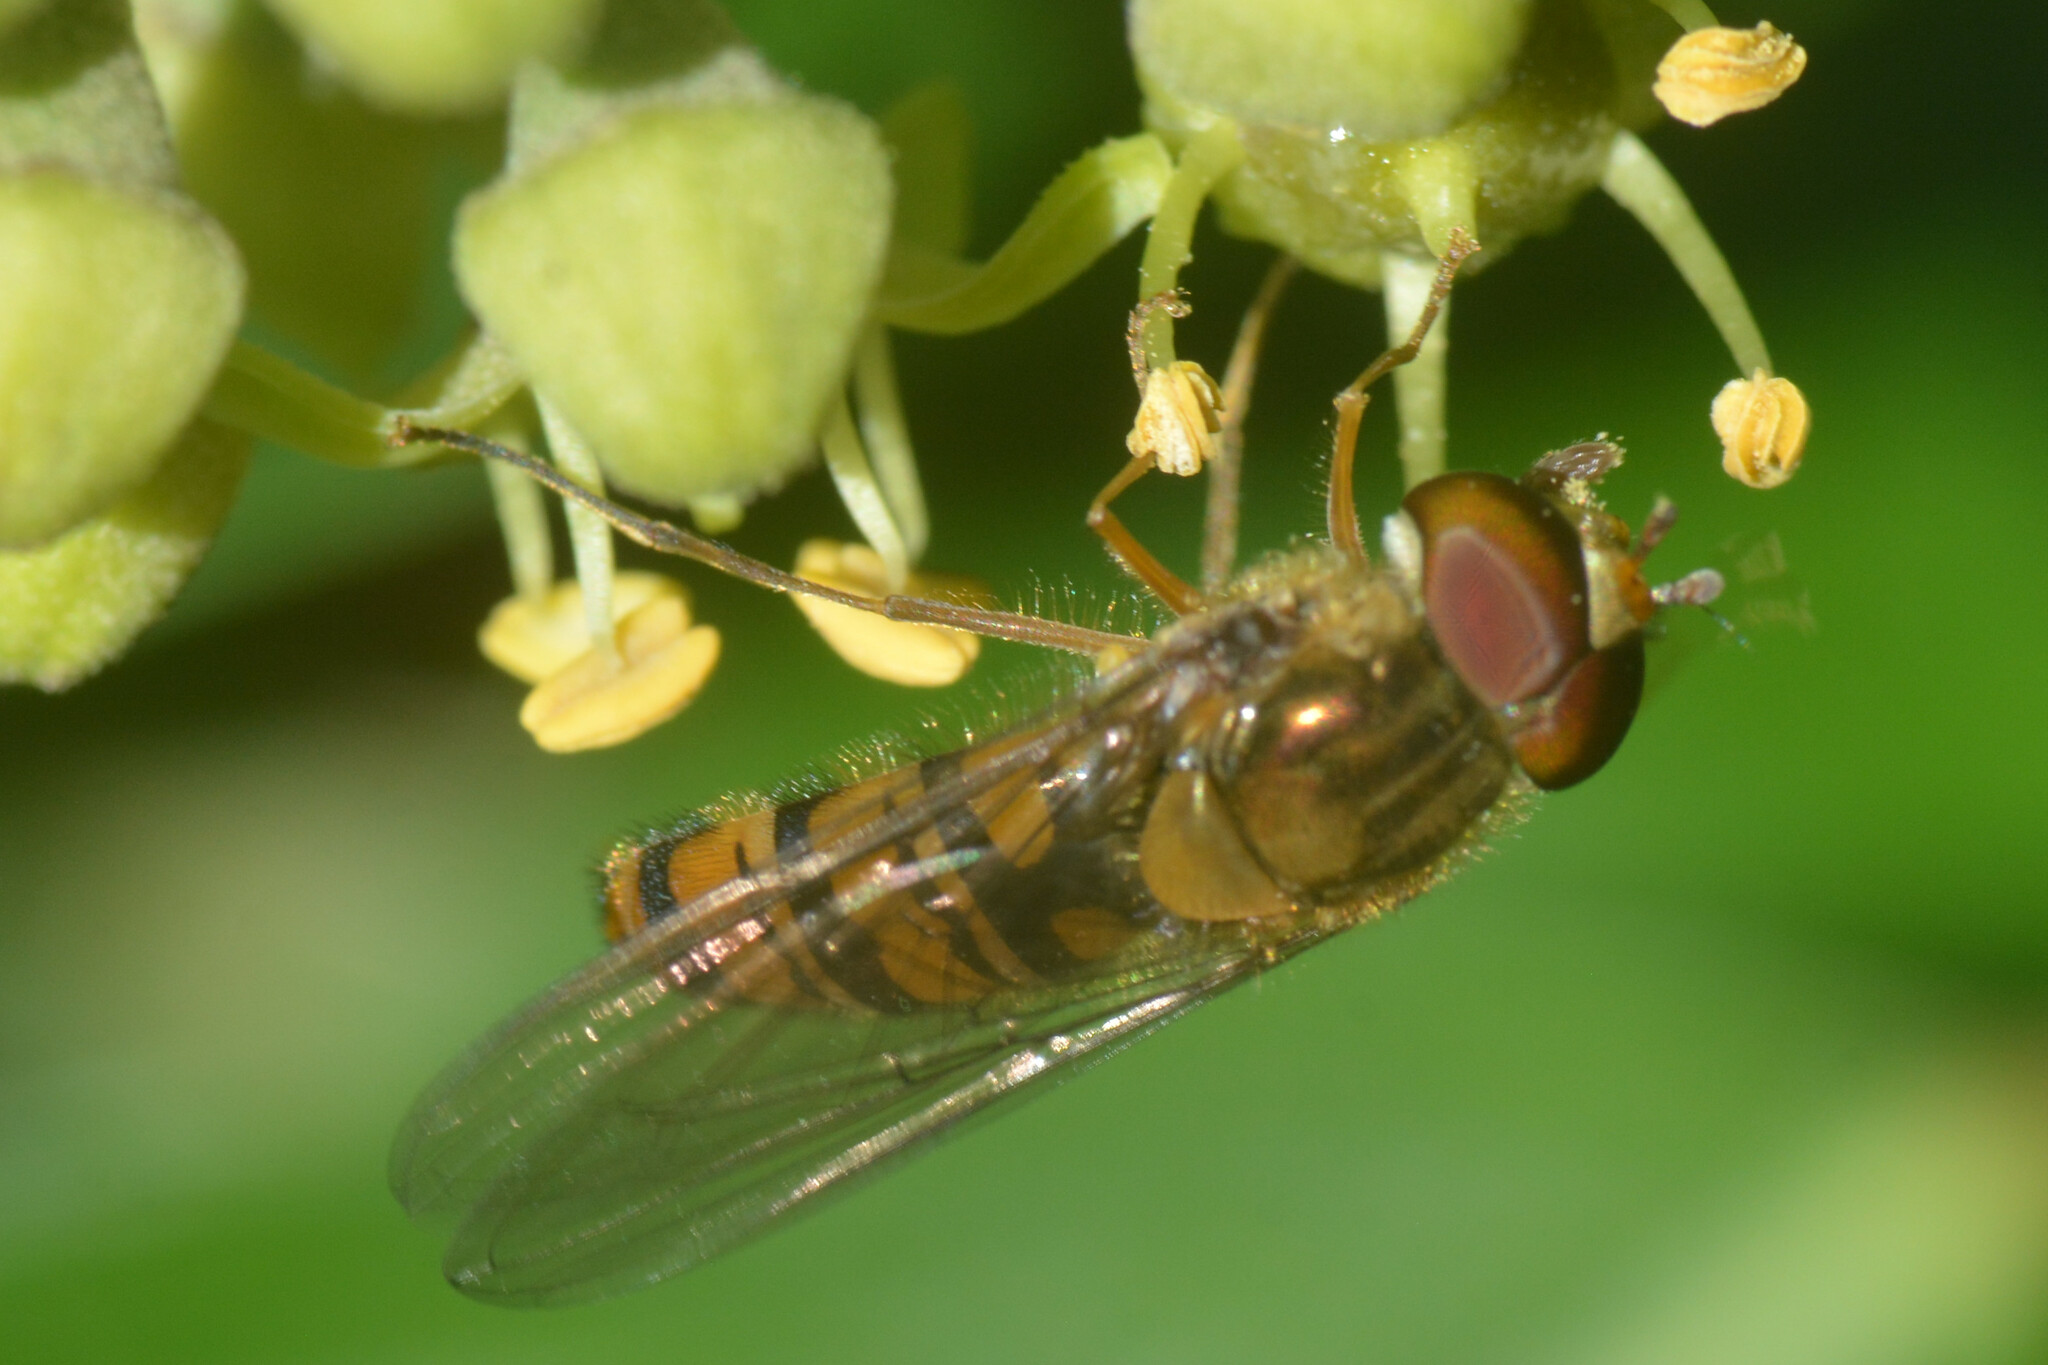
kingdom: Animalia
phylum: Arthropoda
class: Insecta
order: Diptera
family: Syrphidae
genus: Episyrphus
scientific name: Episyrphus balteatus
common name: Marmalade hoverfly
